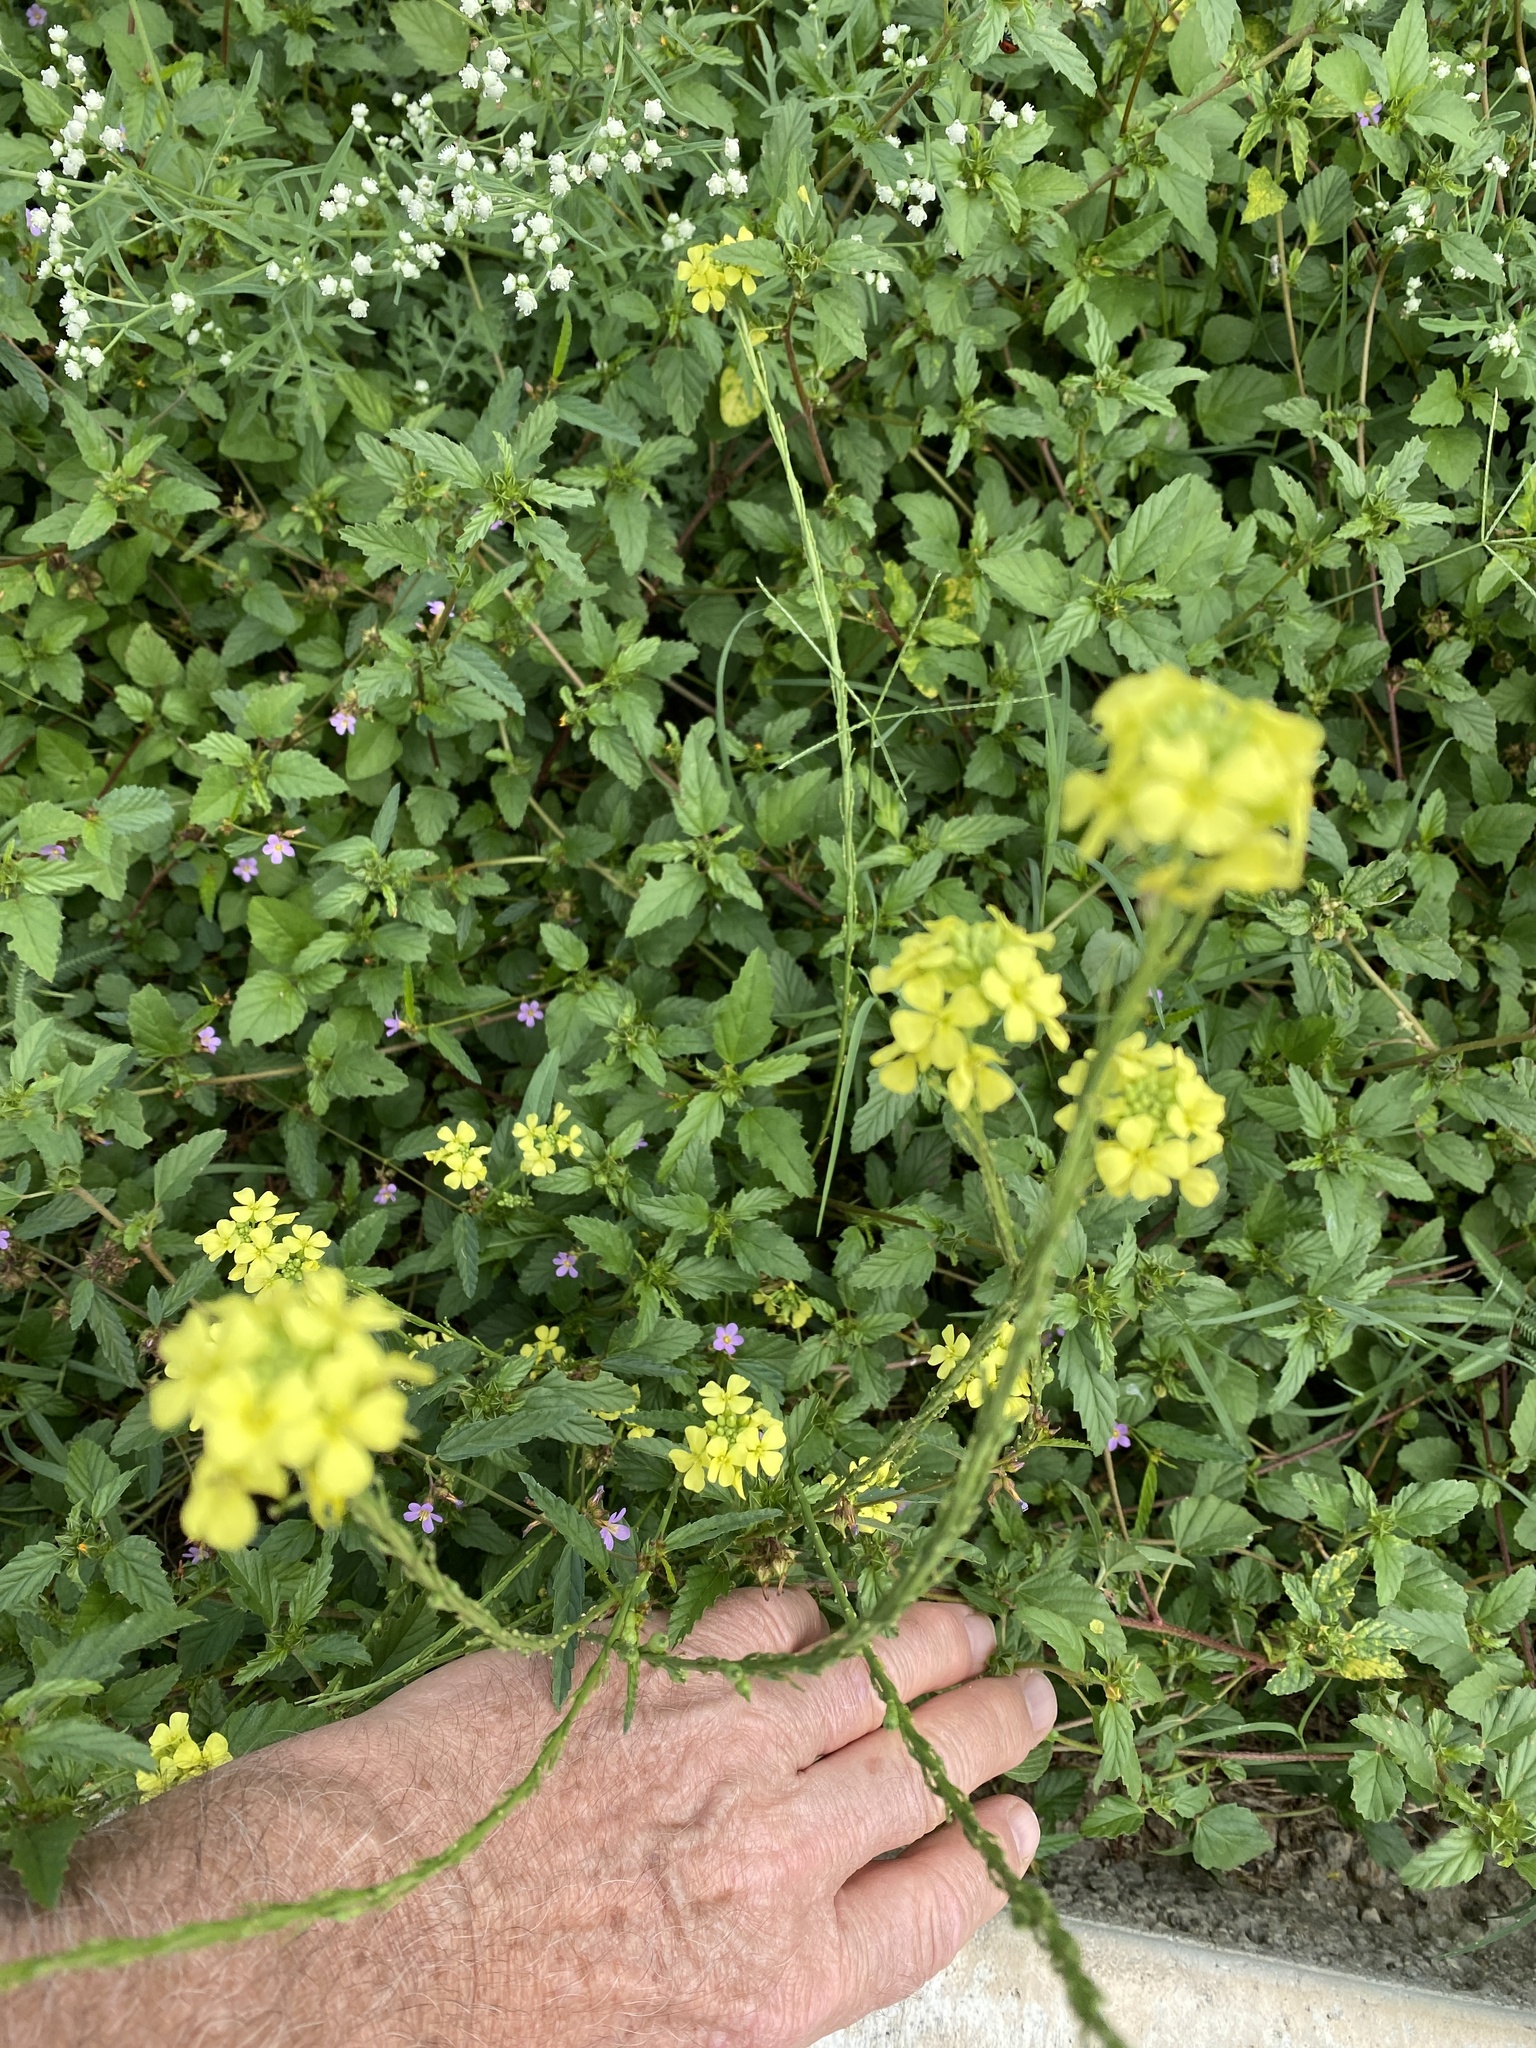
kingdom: Plantae
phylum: Tracheophyta
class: Magnoliopsida
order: Brassicales
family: Brassicaceae
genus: Rapistrum
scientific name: Rapistrum rugosum
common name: Annual bastardcabbage
